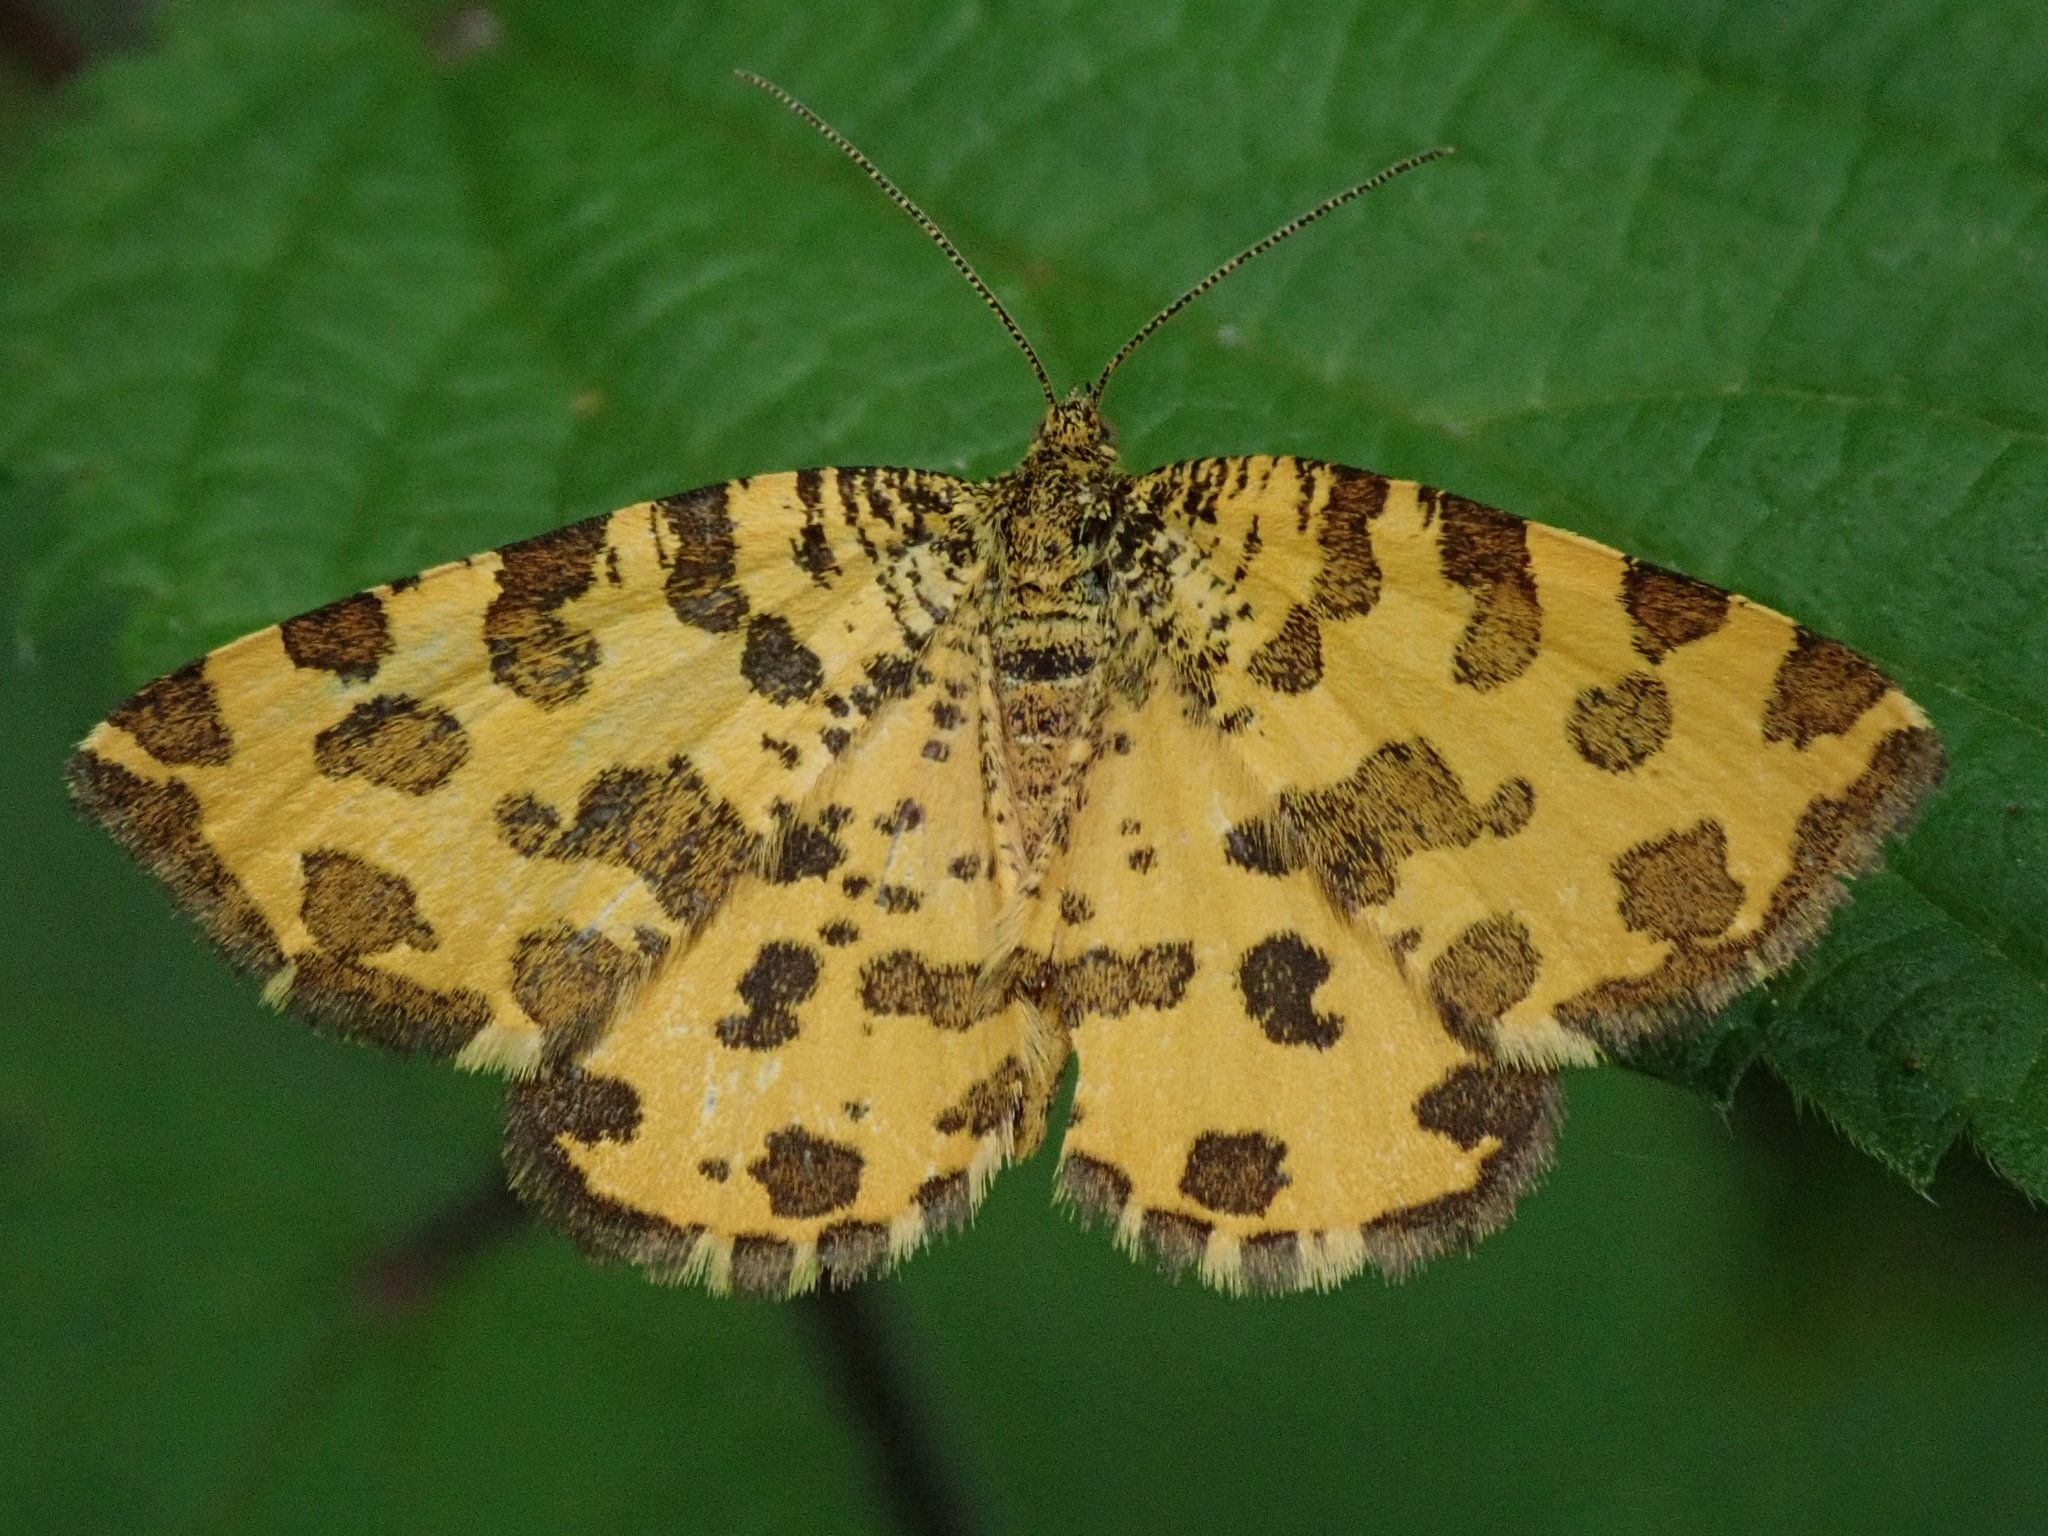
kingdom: Animalia
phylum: Arthropoda
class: Insecta
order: Lepidoptera
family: Geometridae
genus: Pseudopanthera
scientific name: Pseudopanthera macularia
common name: Speckled yellow
